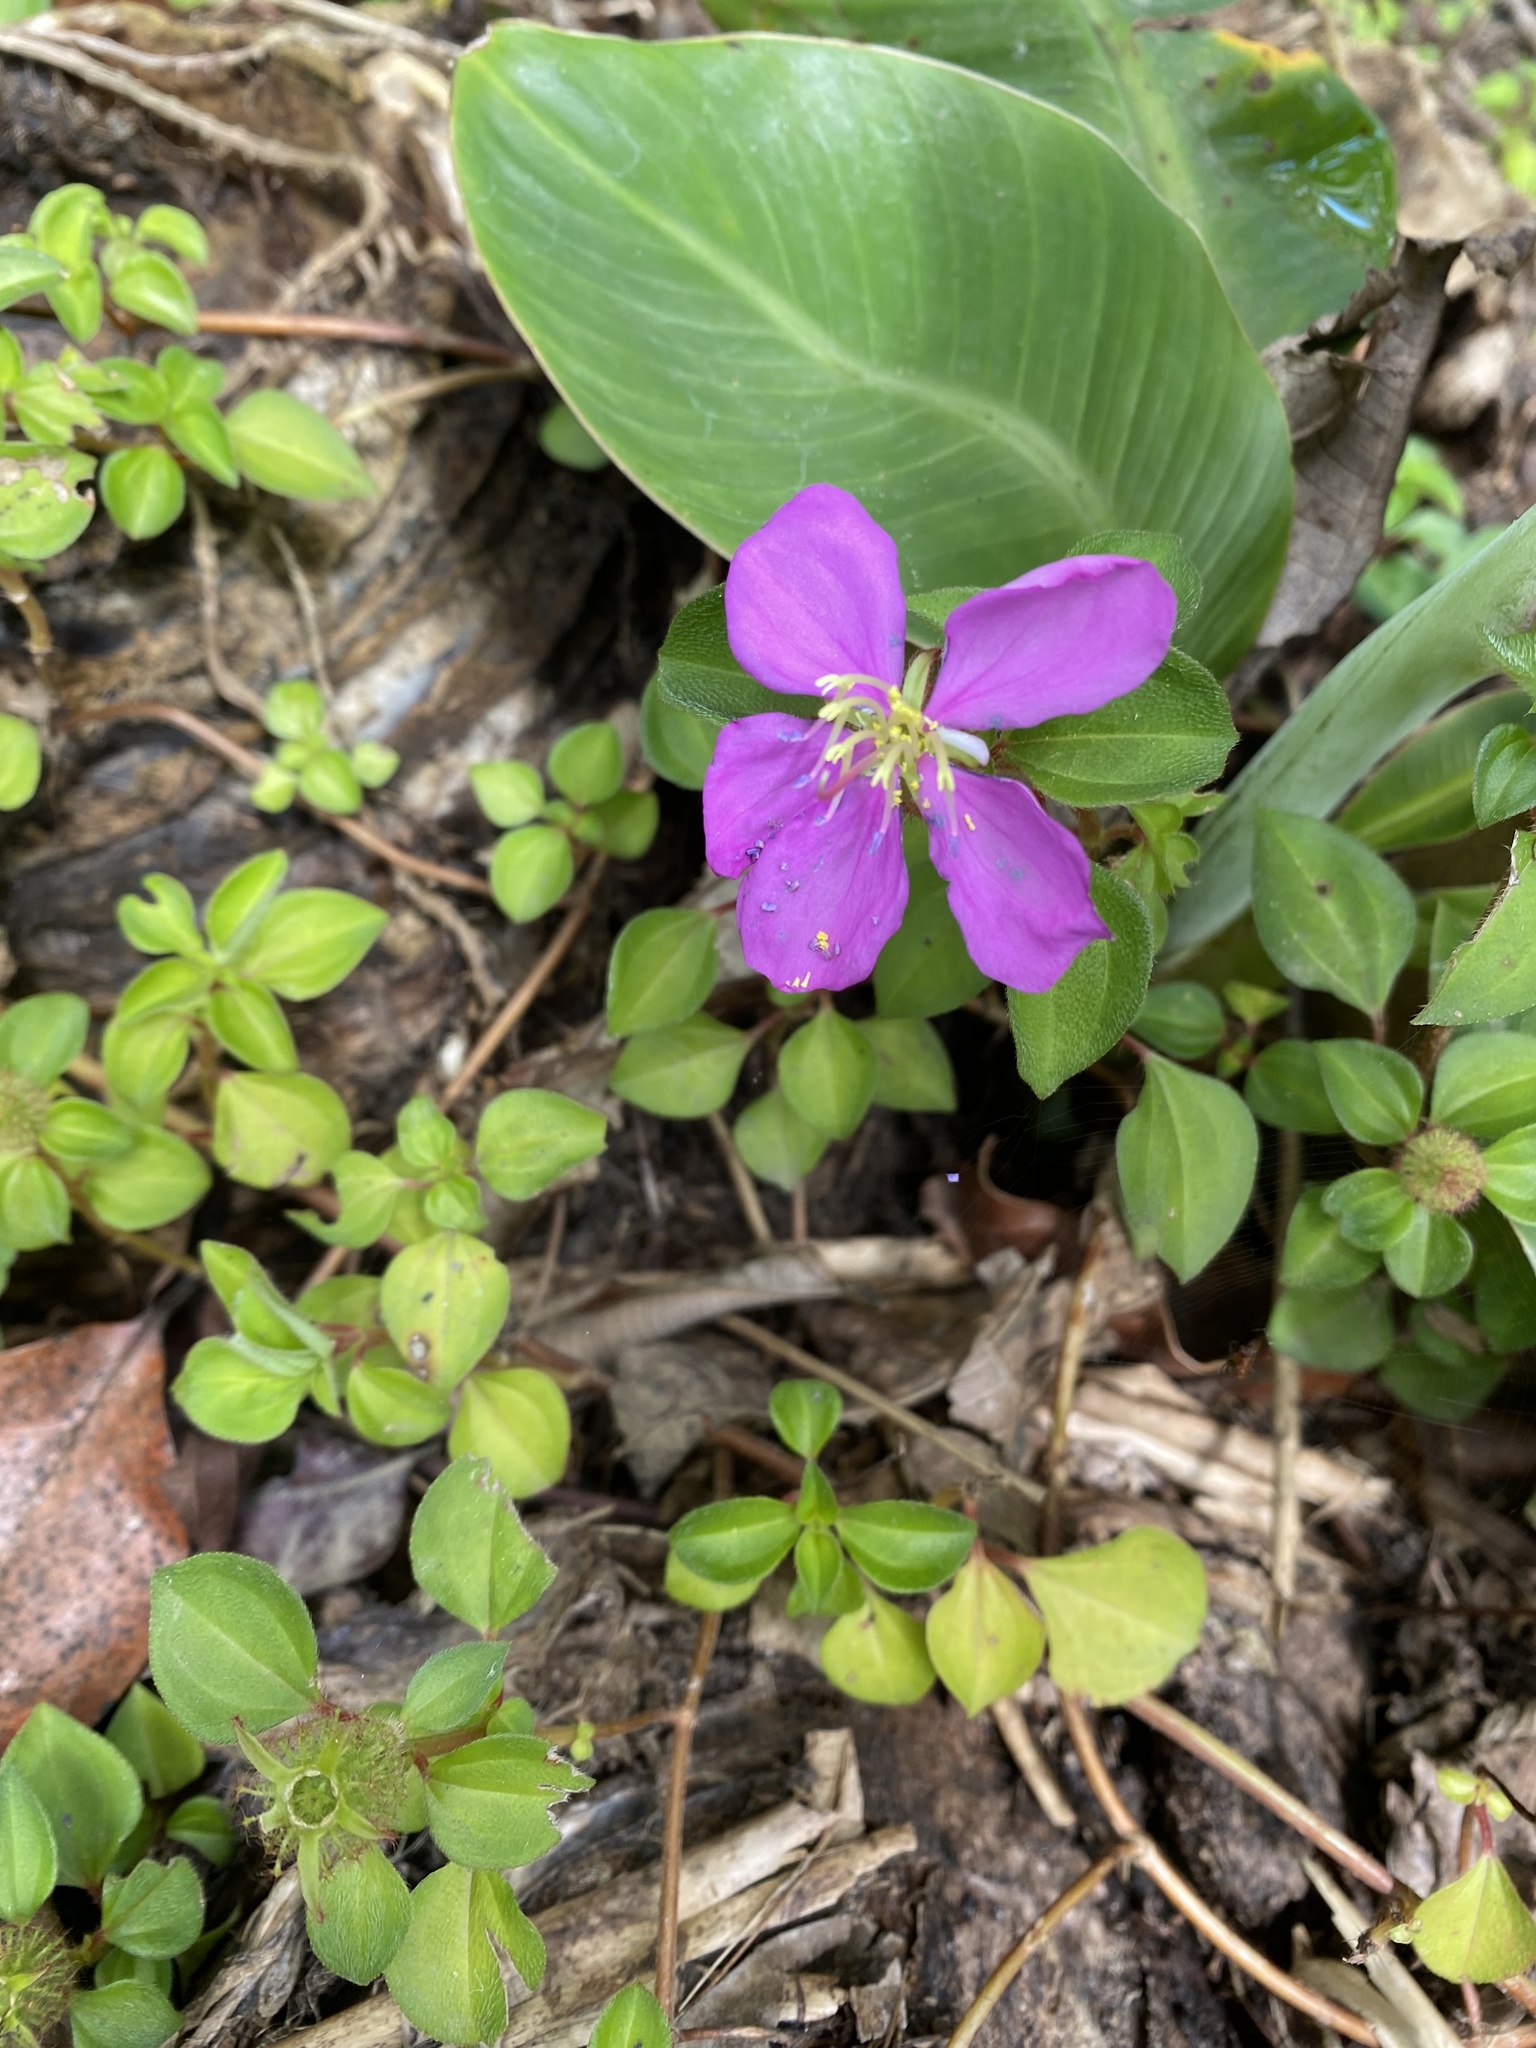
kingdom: Plantae
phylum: Tracheophyta
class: Magnoliopsida
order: Myrtales
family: Melastomataceae
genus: Heterotis
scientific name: Heterotis rotundifolia
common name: Pinklady
